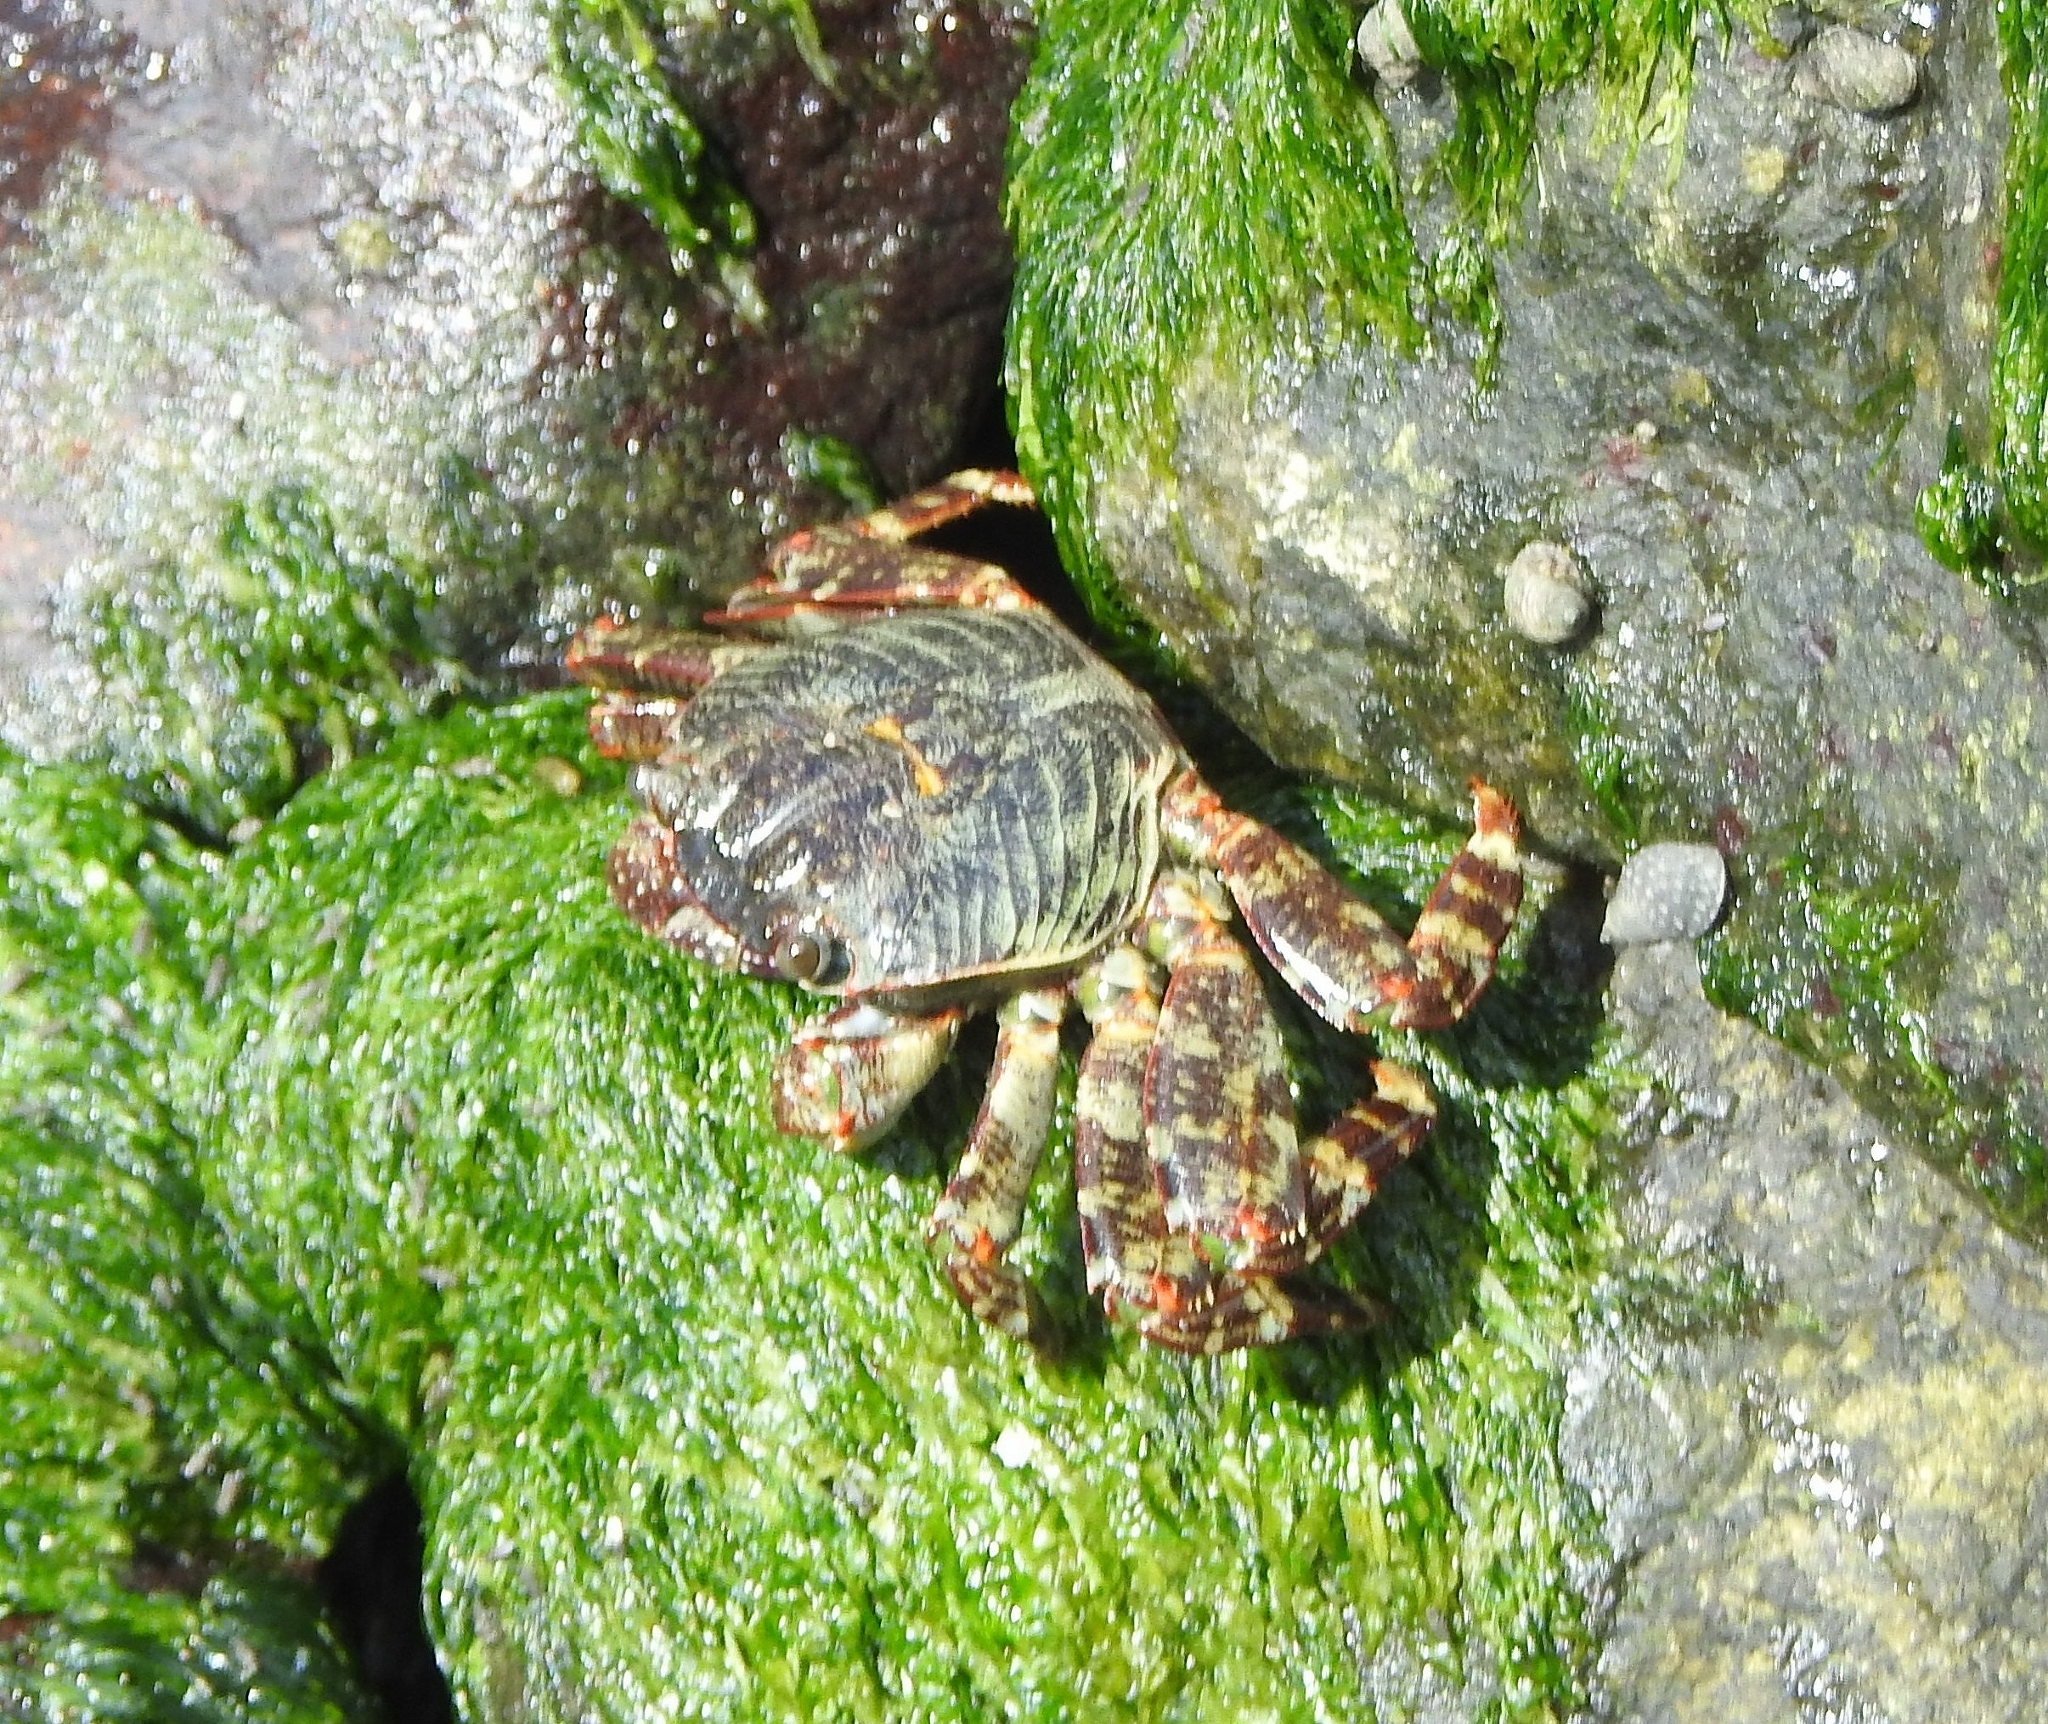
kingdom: Animalia
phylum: Arthropoda
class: Malacostraca
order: Decapoda
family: Grapsidae
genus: Grapsus
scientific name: Grapsus albolineatus
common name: Mottled lightfoot crab
